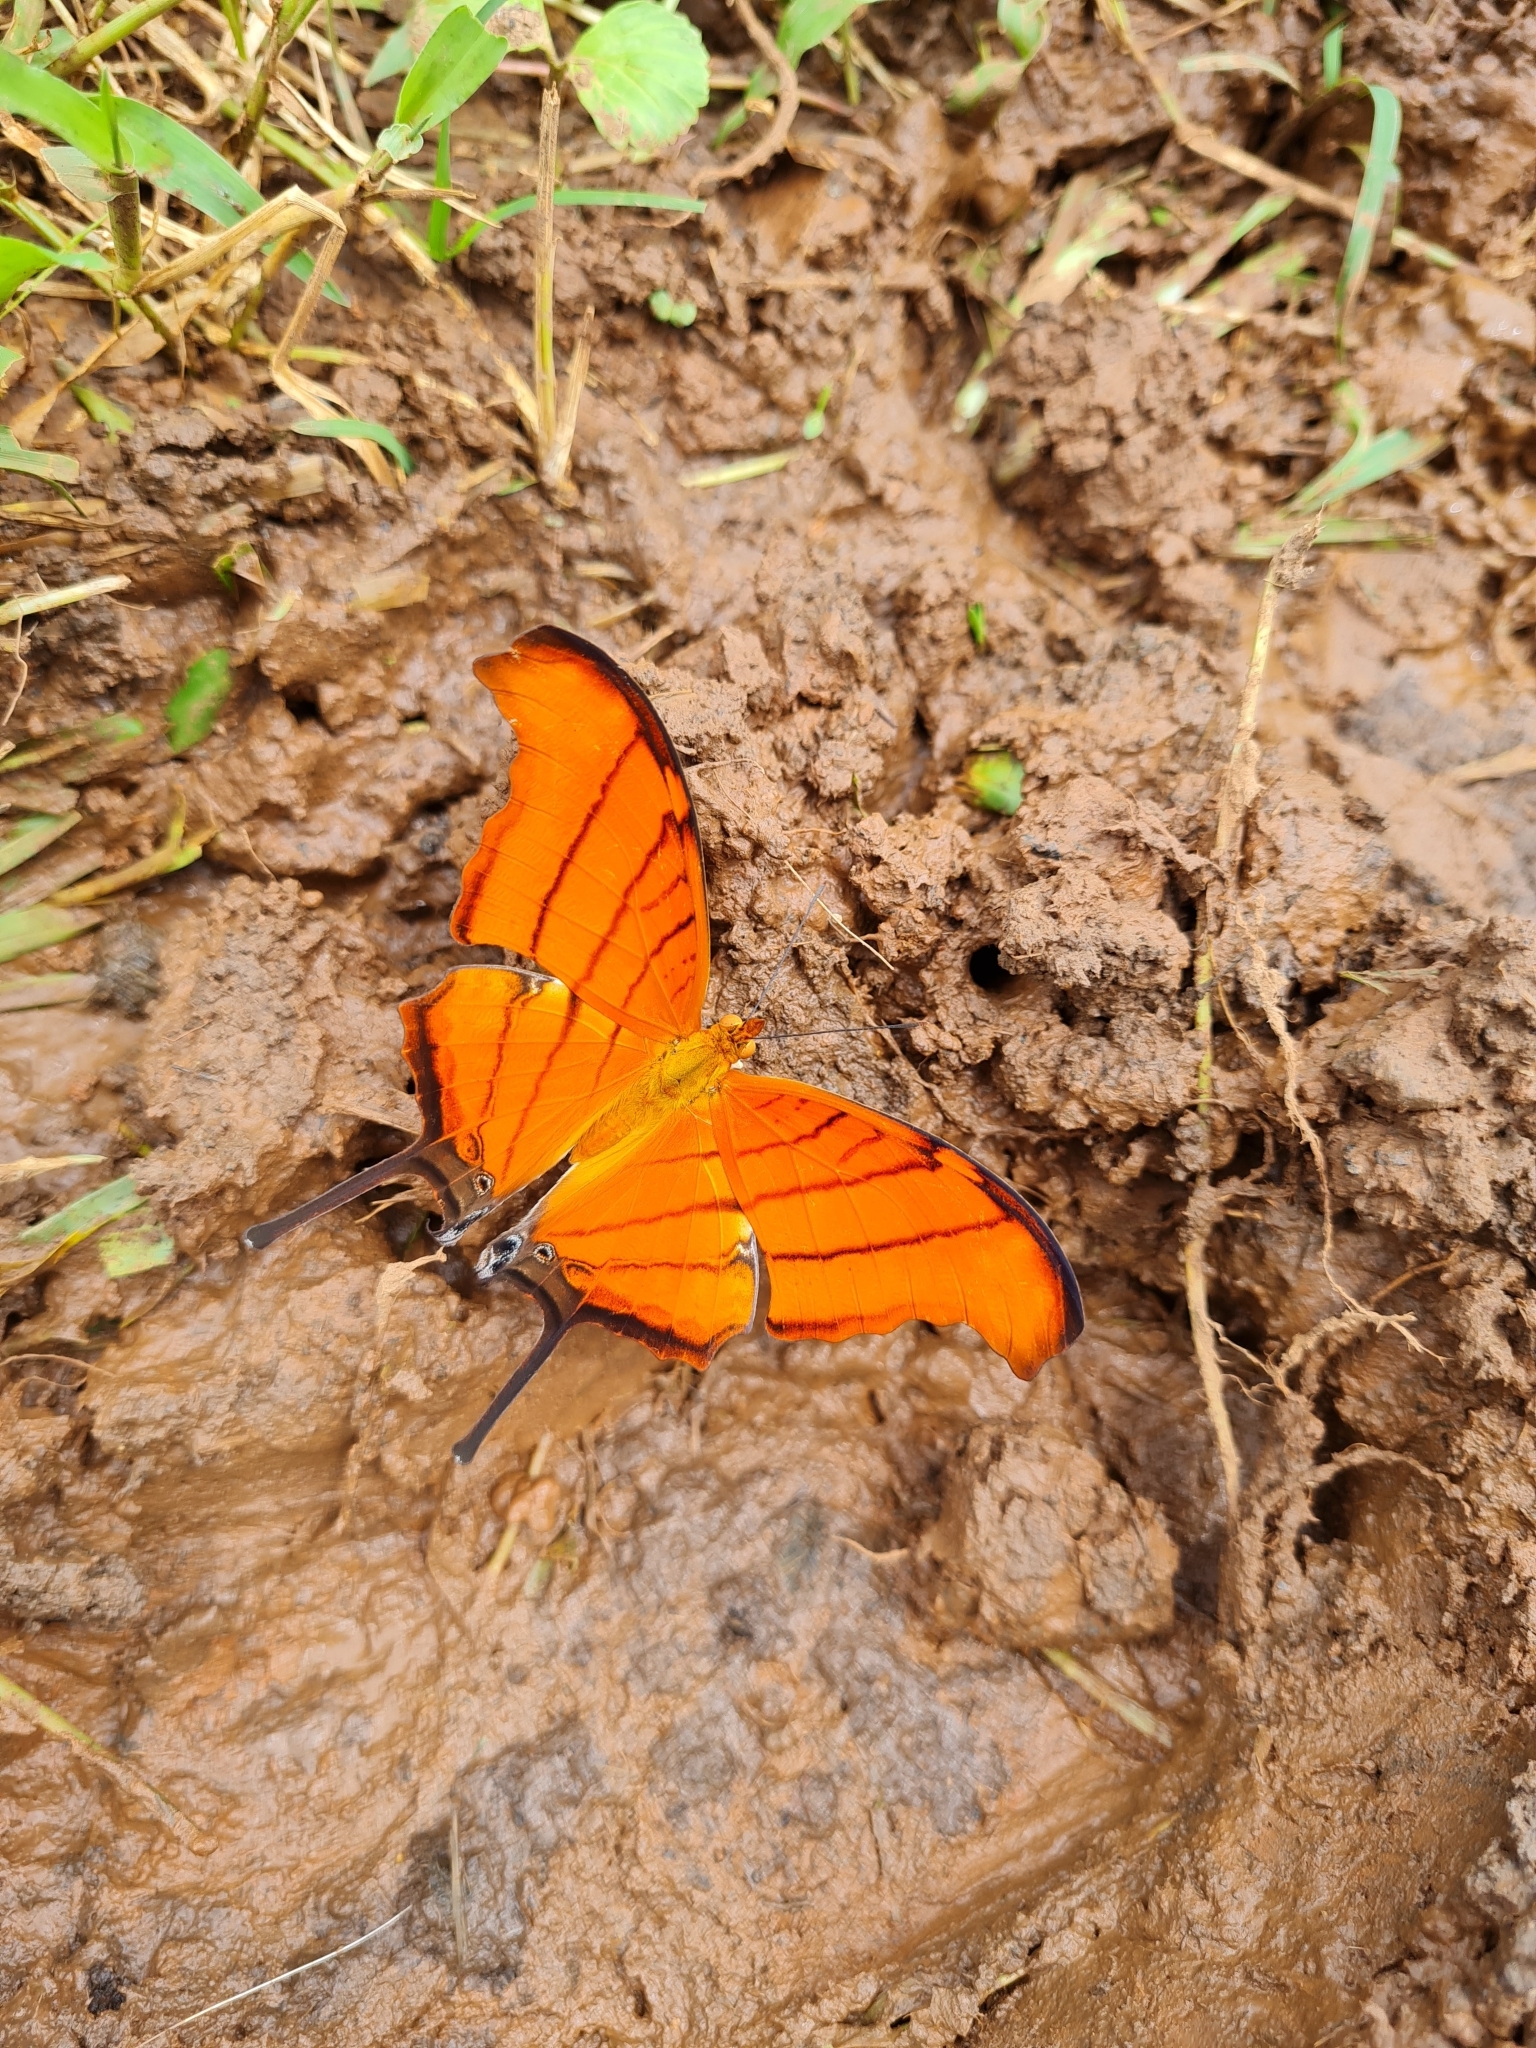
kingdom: Animalia
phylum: Arthropoda
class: Insecta
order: Lepidoptera
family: Nymphalidae
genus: Marpesia
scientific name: Marpesia petreus
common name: Red dagger wing
